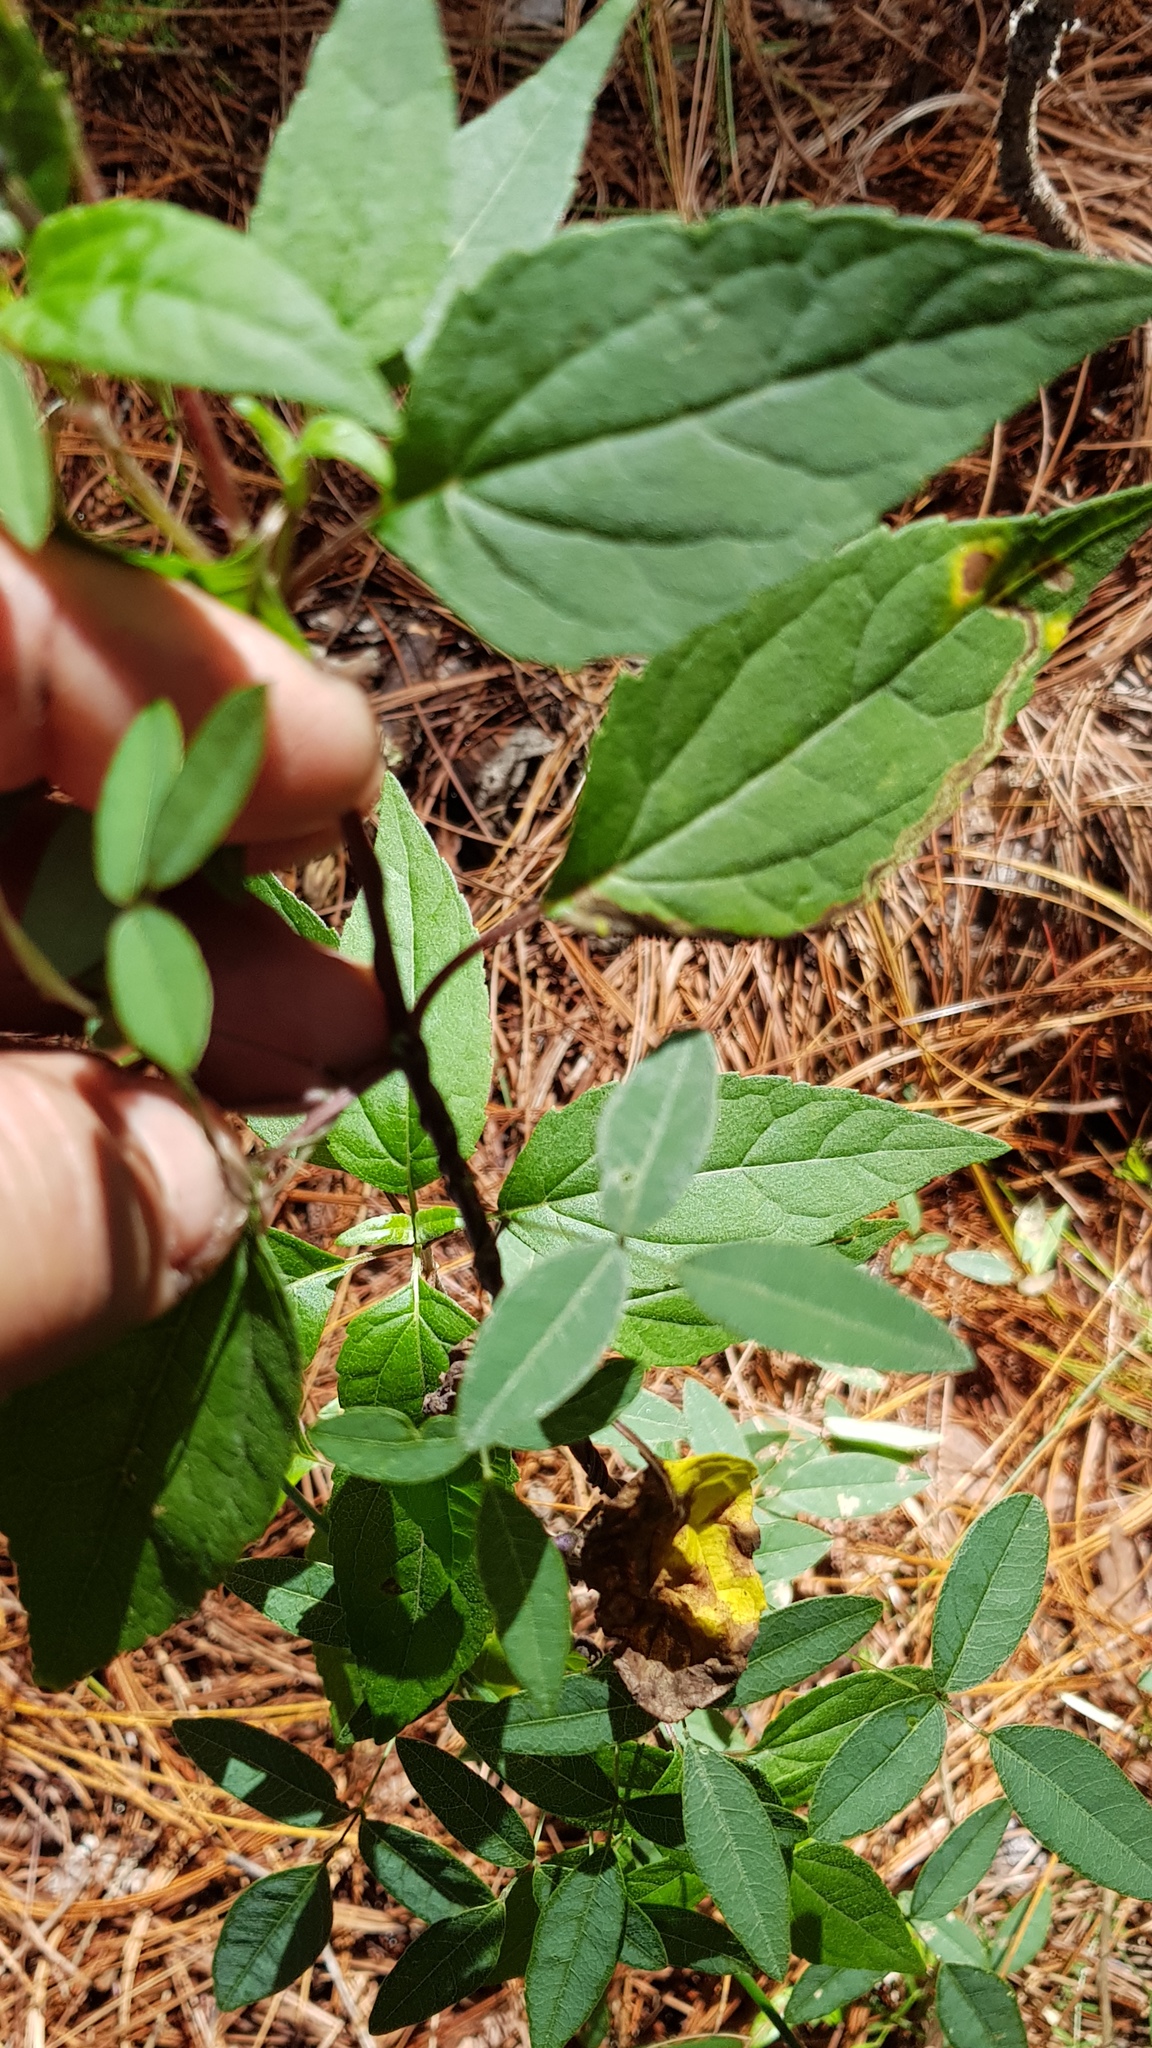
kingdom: Plantae
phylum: Tracheophyta
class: Magnoliopsida
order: Fabales
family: Fabaceae
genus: Cologania
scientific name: Cologania biloba
